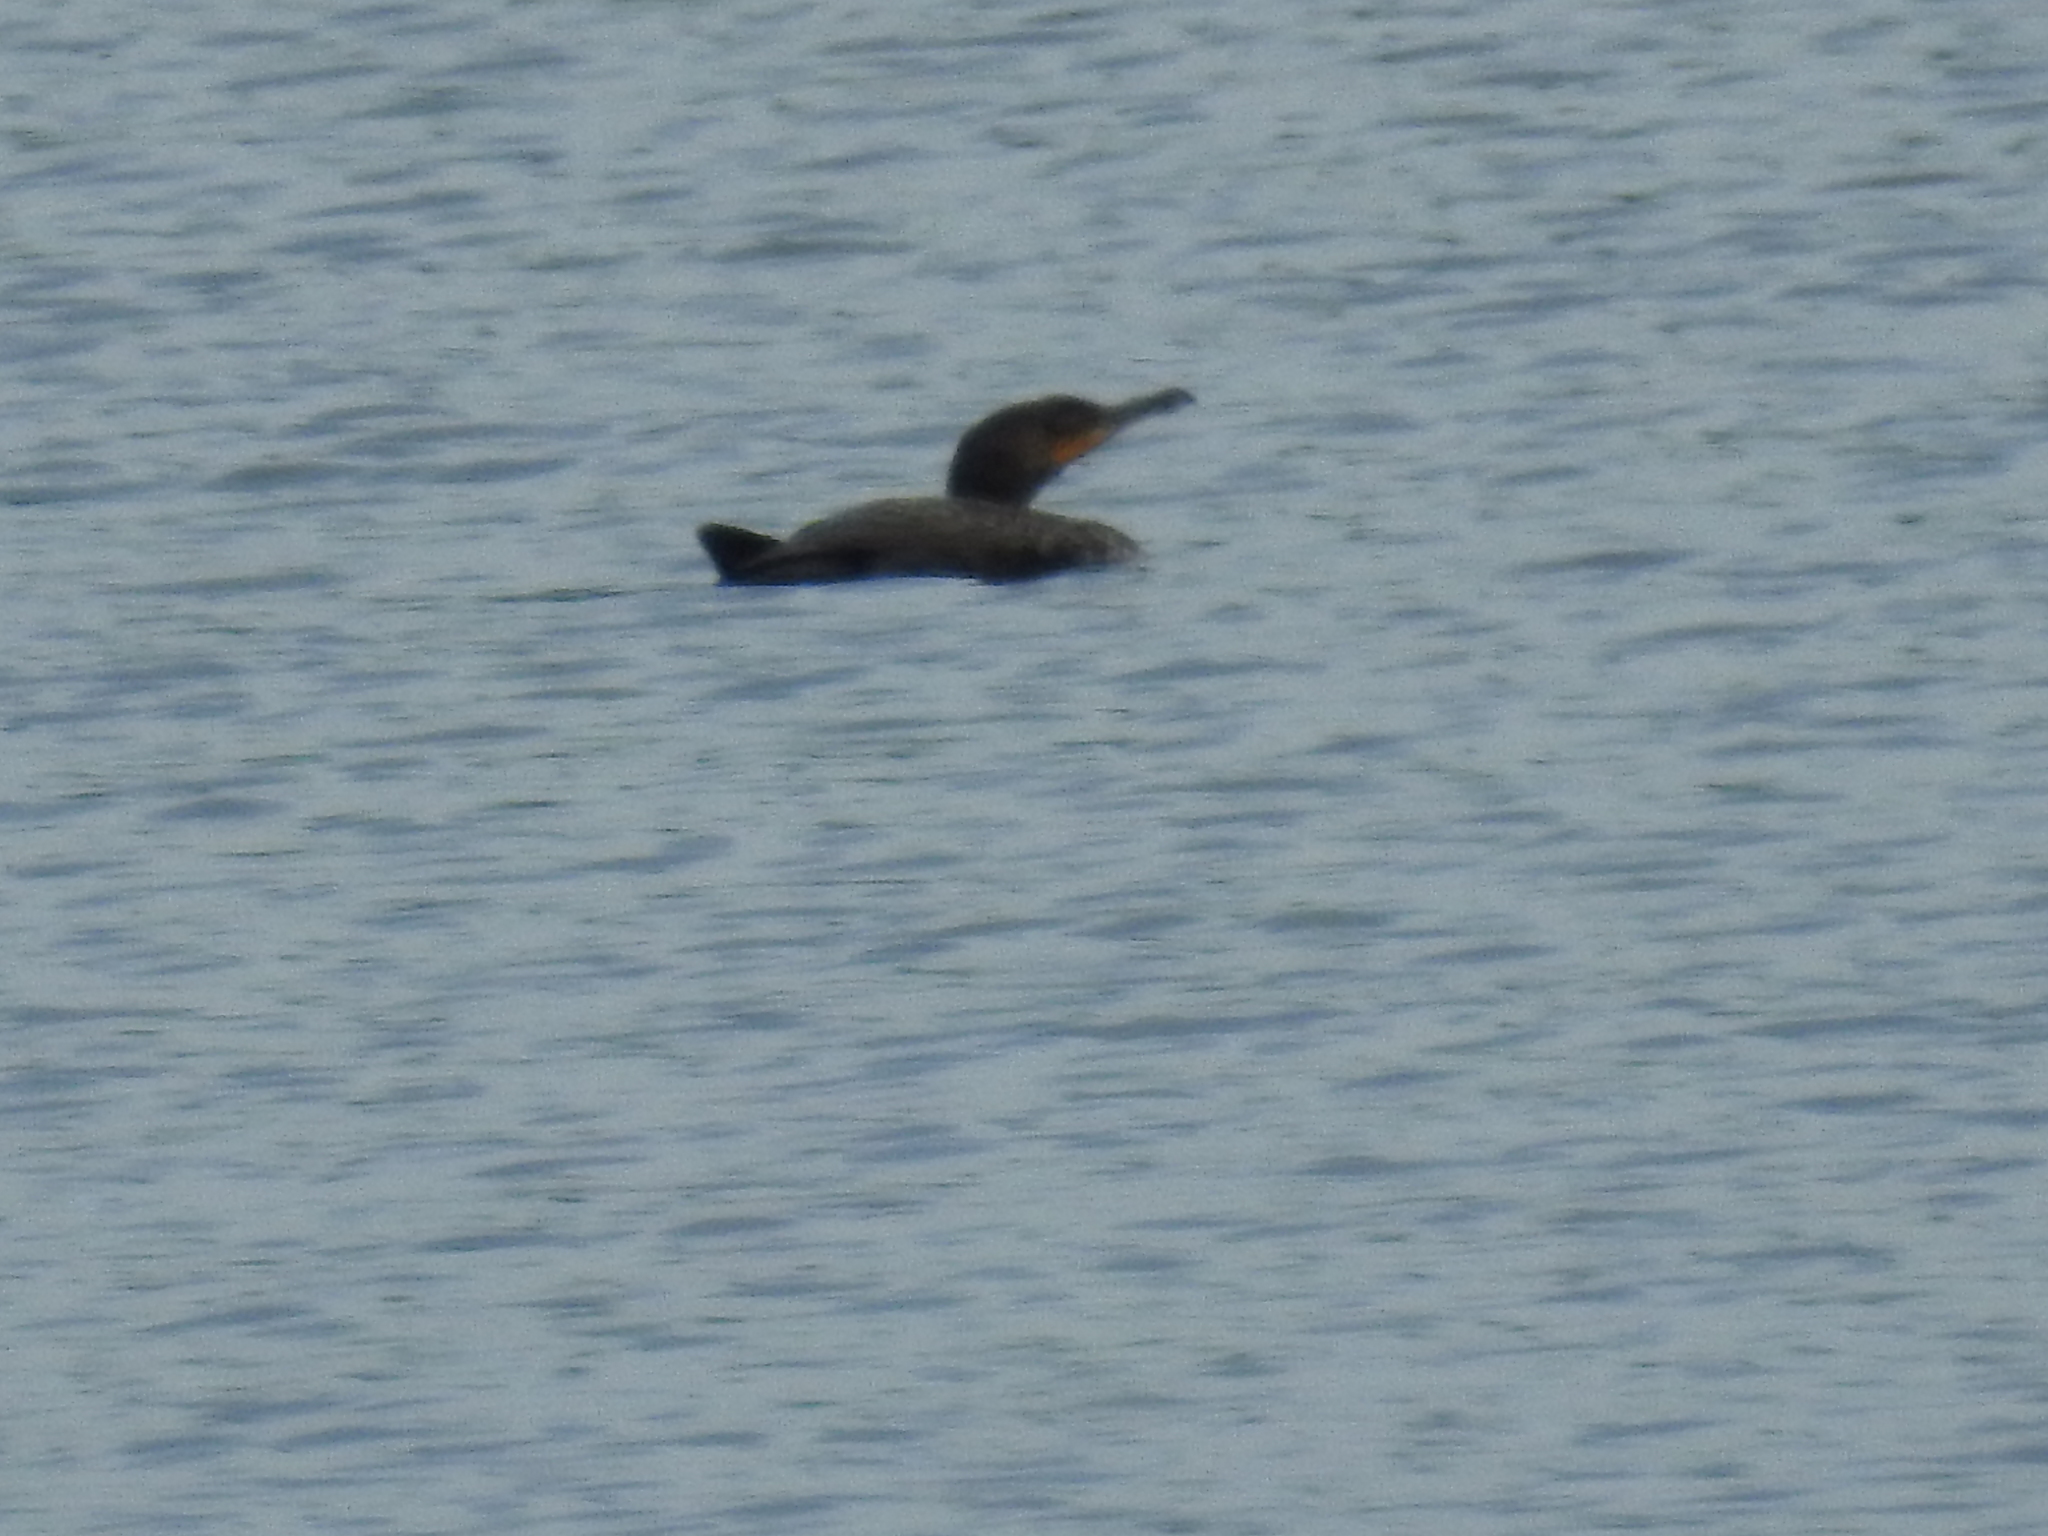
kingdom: Animalia
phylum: Chordata
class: Aves
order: Suliformes
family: Phalacrocoracidae
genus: Phalacrocorax
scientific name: Phalacrocorax auritus
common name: Double-crested cormorant
